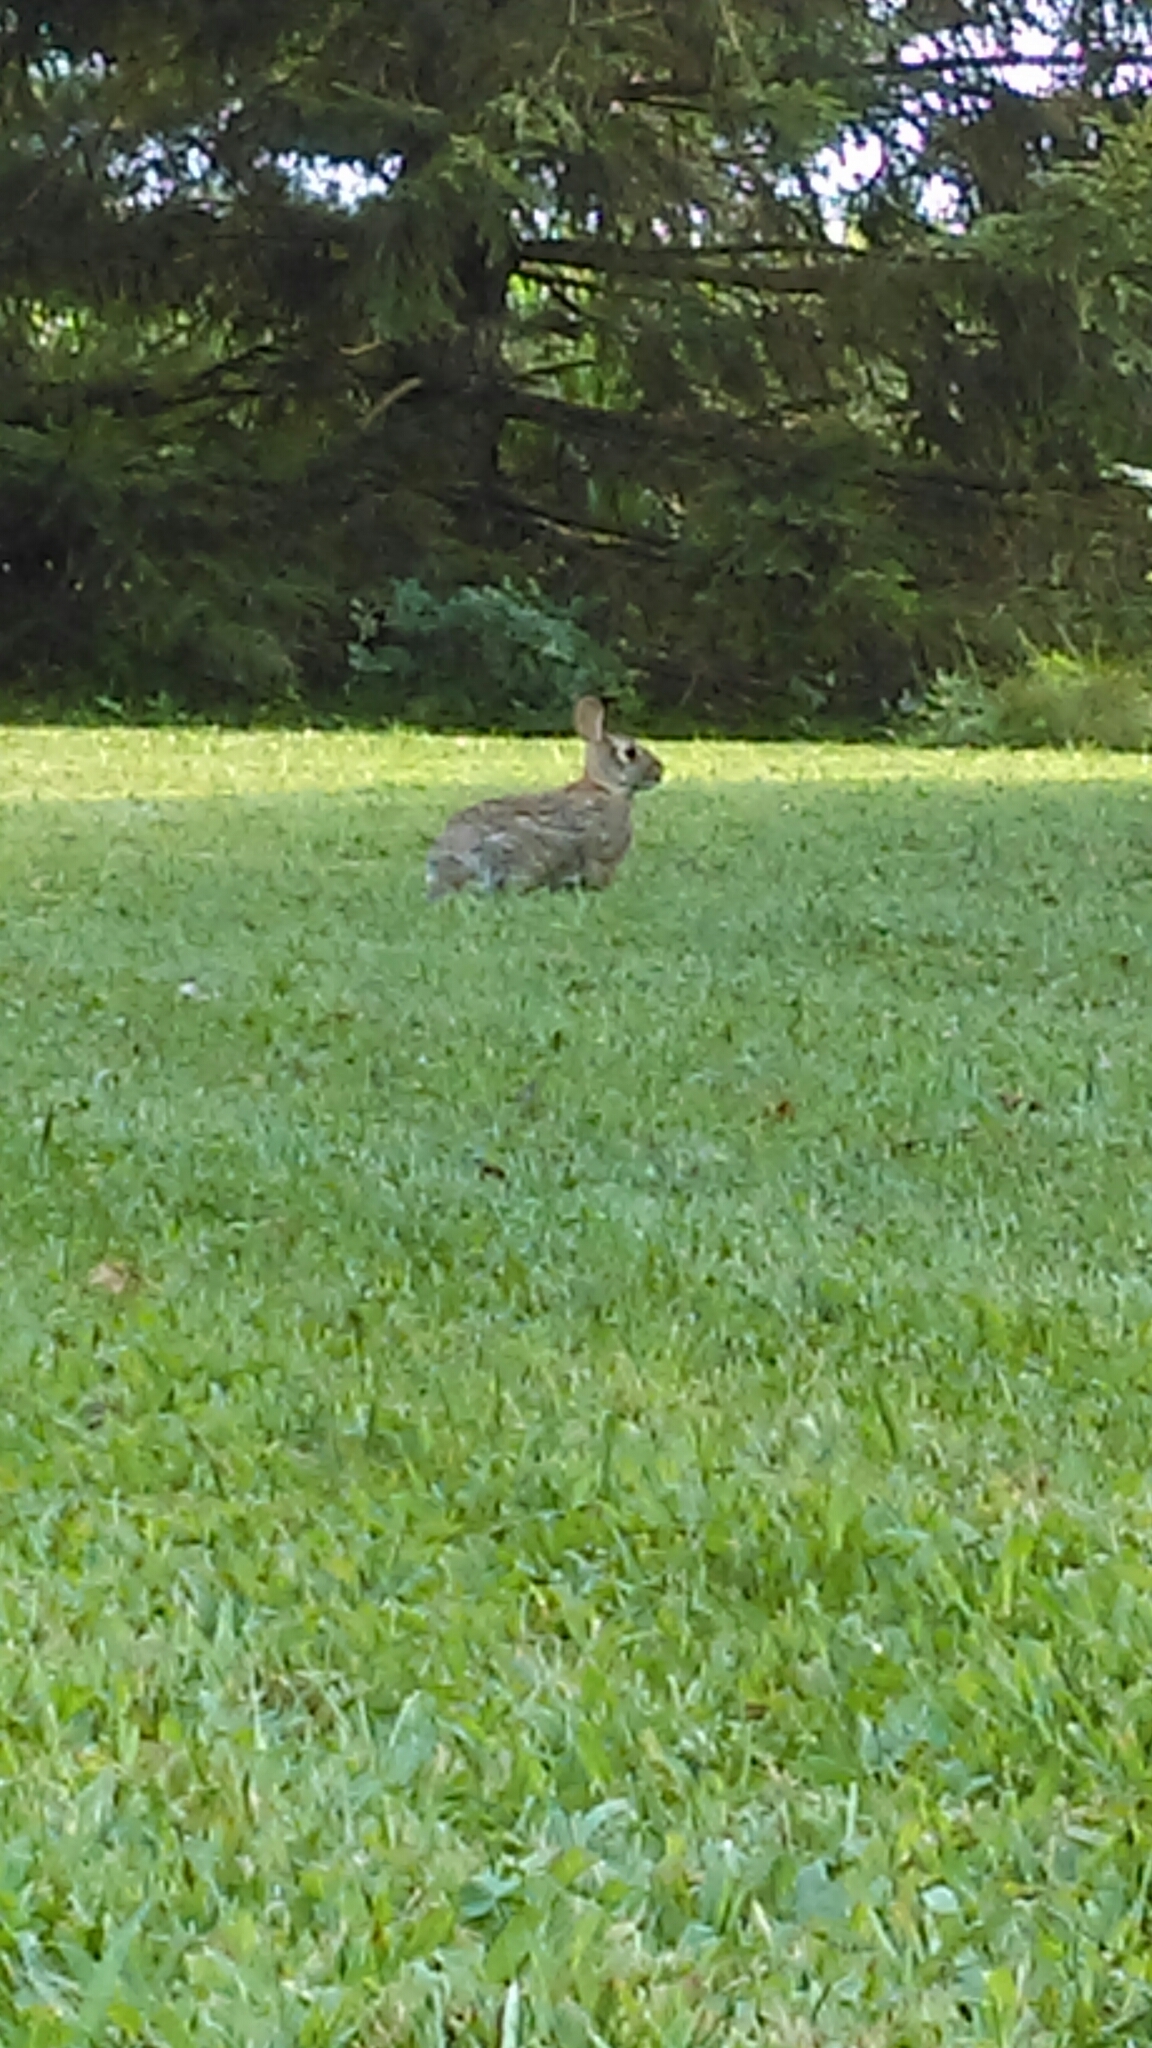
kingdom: Animalia
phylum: Chordata
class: Mammalia
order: Lagomorpha
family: Leporidae
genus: Sylvilagus
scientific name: Sylvilagus floridanus
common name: Eastern cottontail
